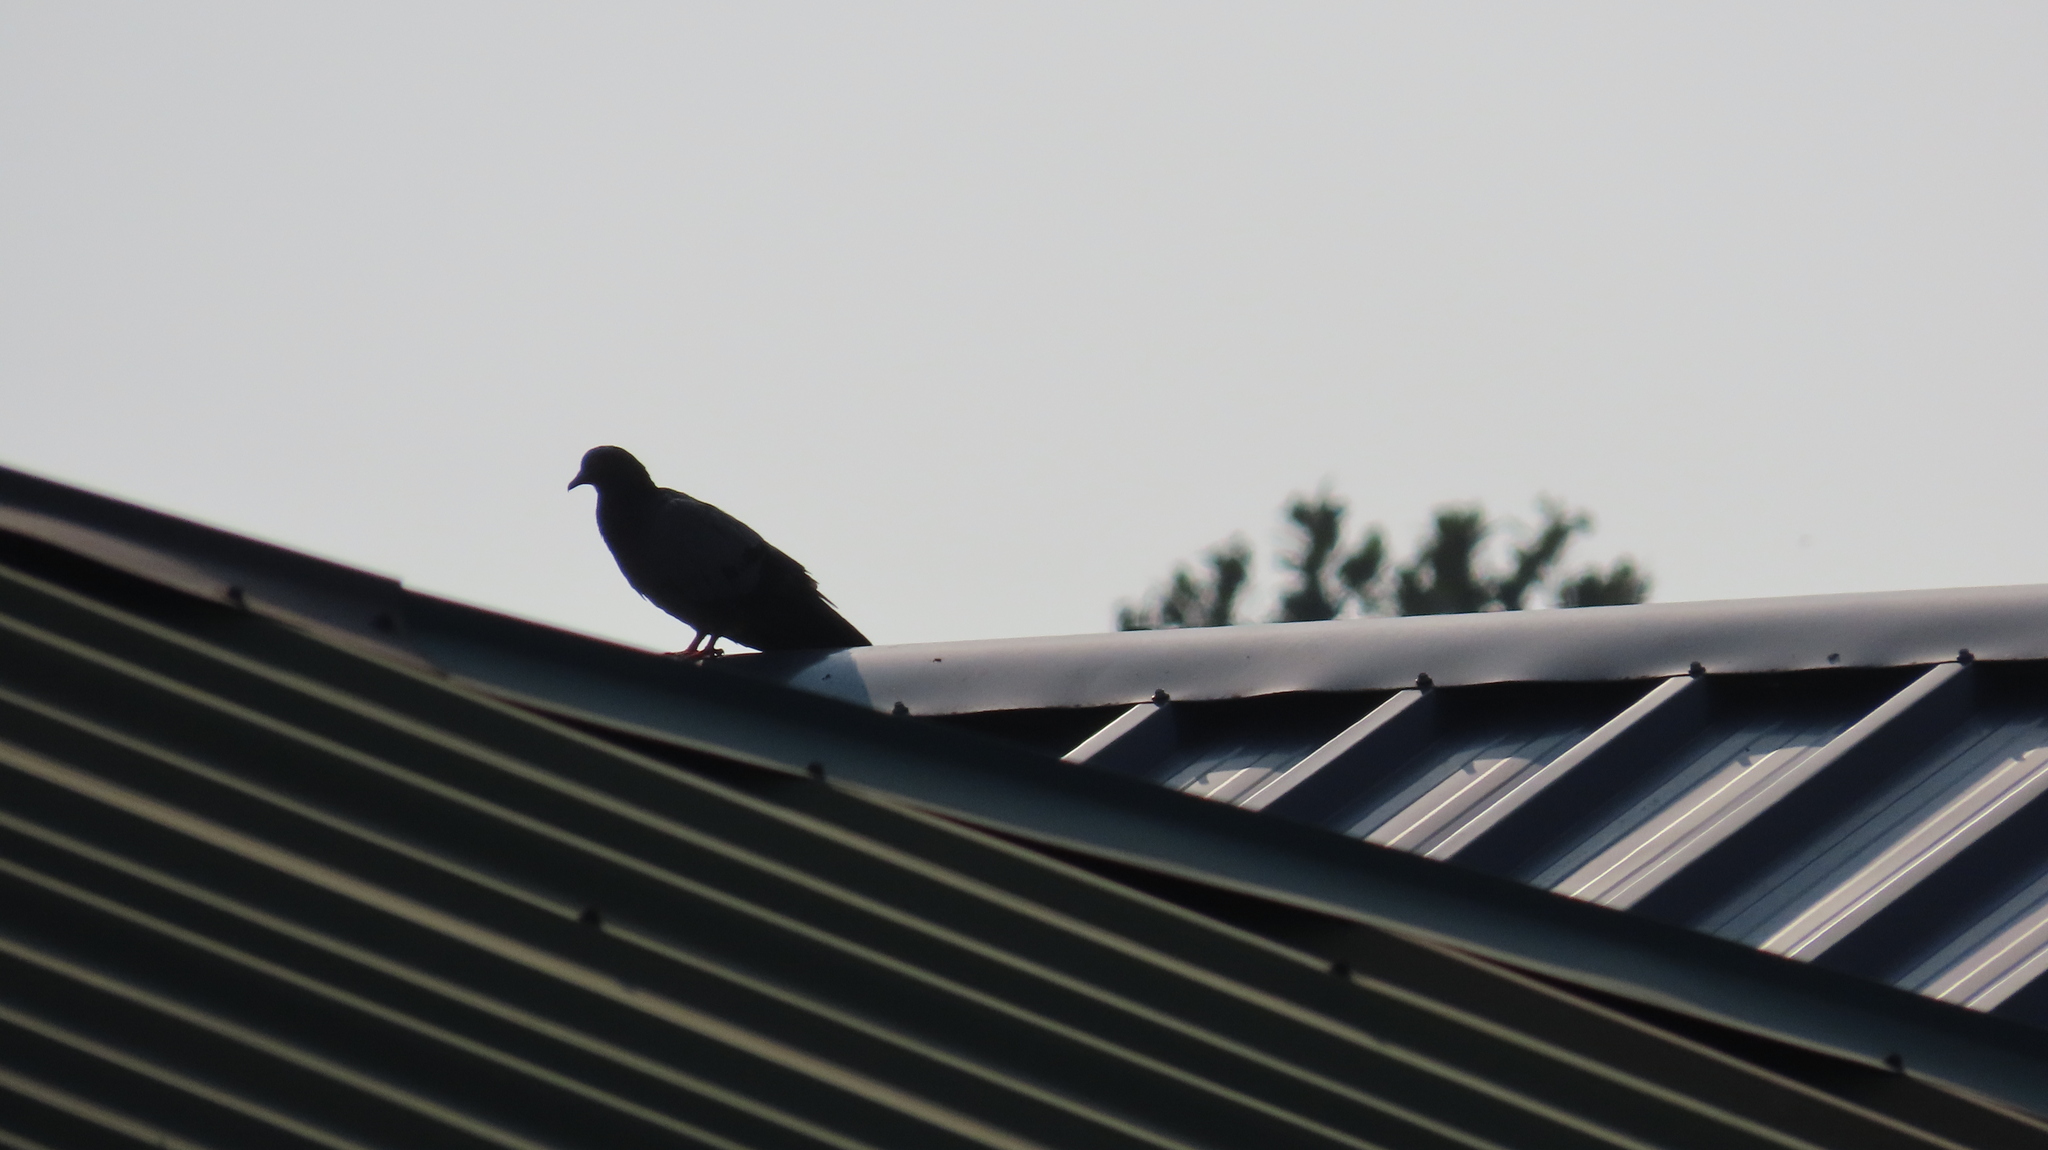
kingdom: Animalia
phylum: Chordata
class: Aves
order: Columbiformes
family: Columbidae
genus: Columba
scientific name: Columba livia
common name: Rock pigeon
